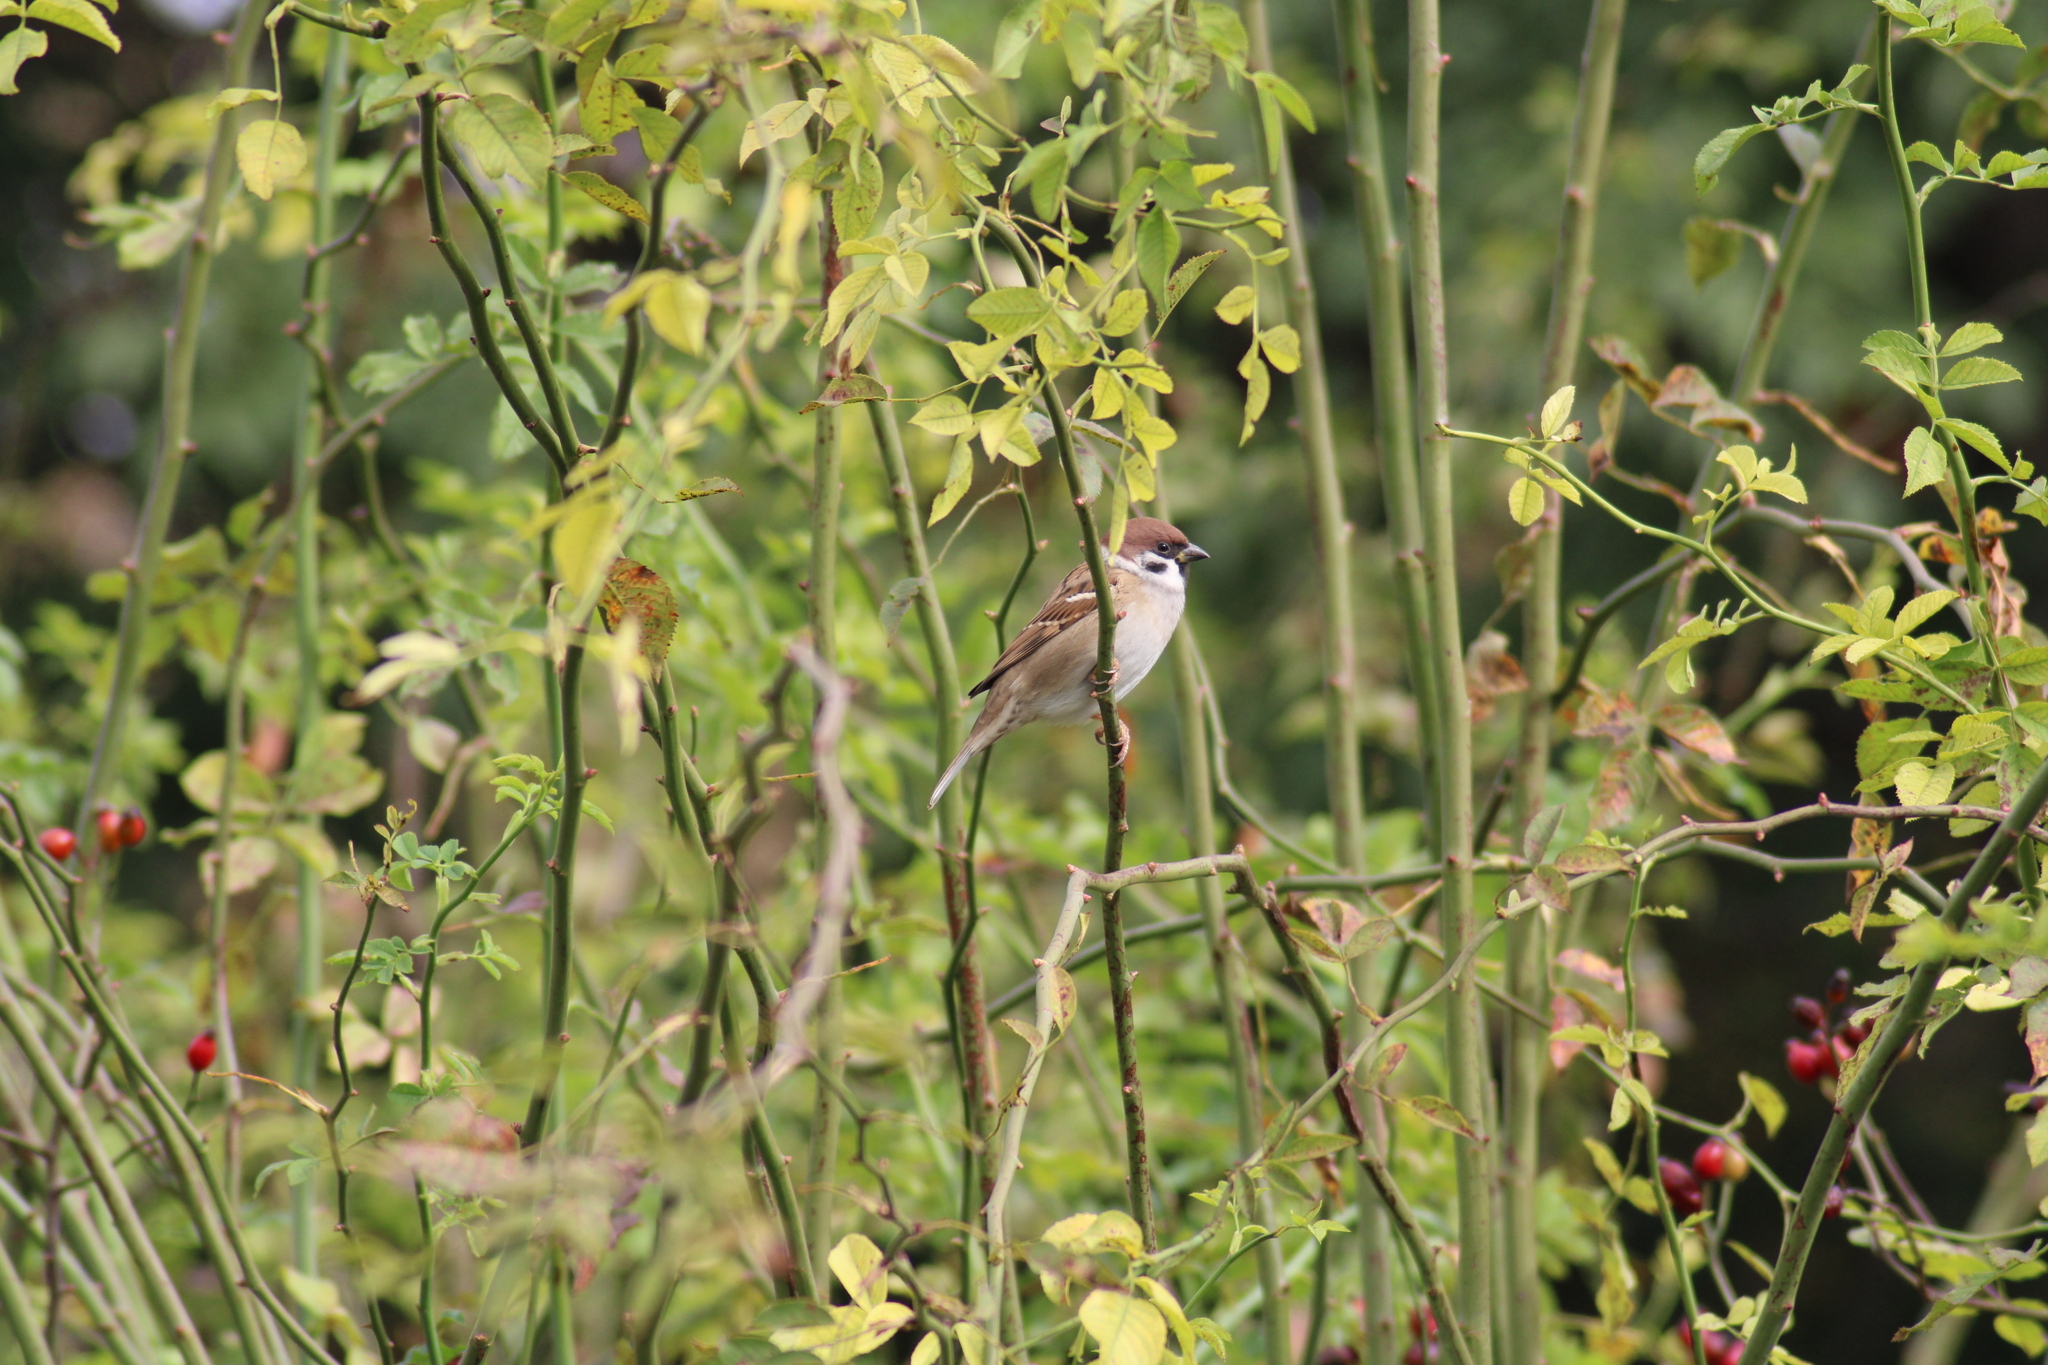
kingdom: Animalia
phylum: Chordata
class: Aves
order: Passeriformes
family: Passeridae
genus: Passer
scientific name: Passer montanus
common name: Eurasian tree sparrow
